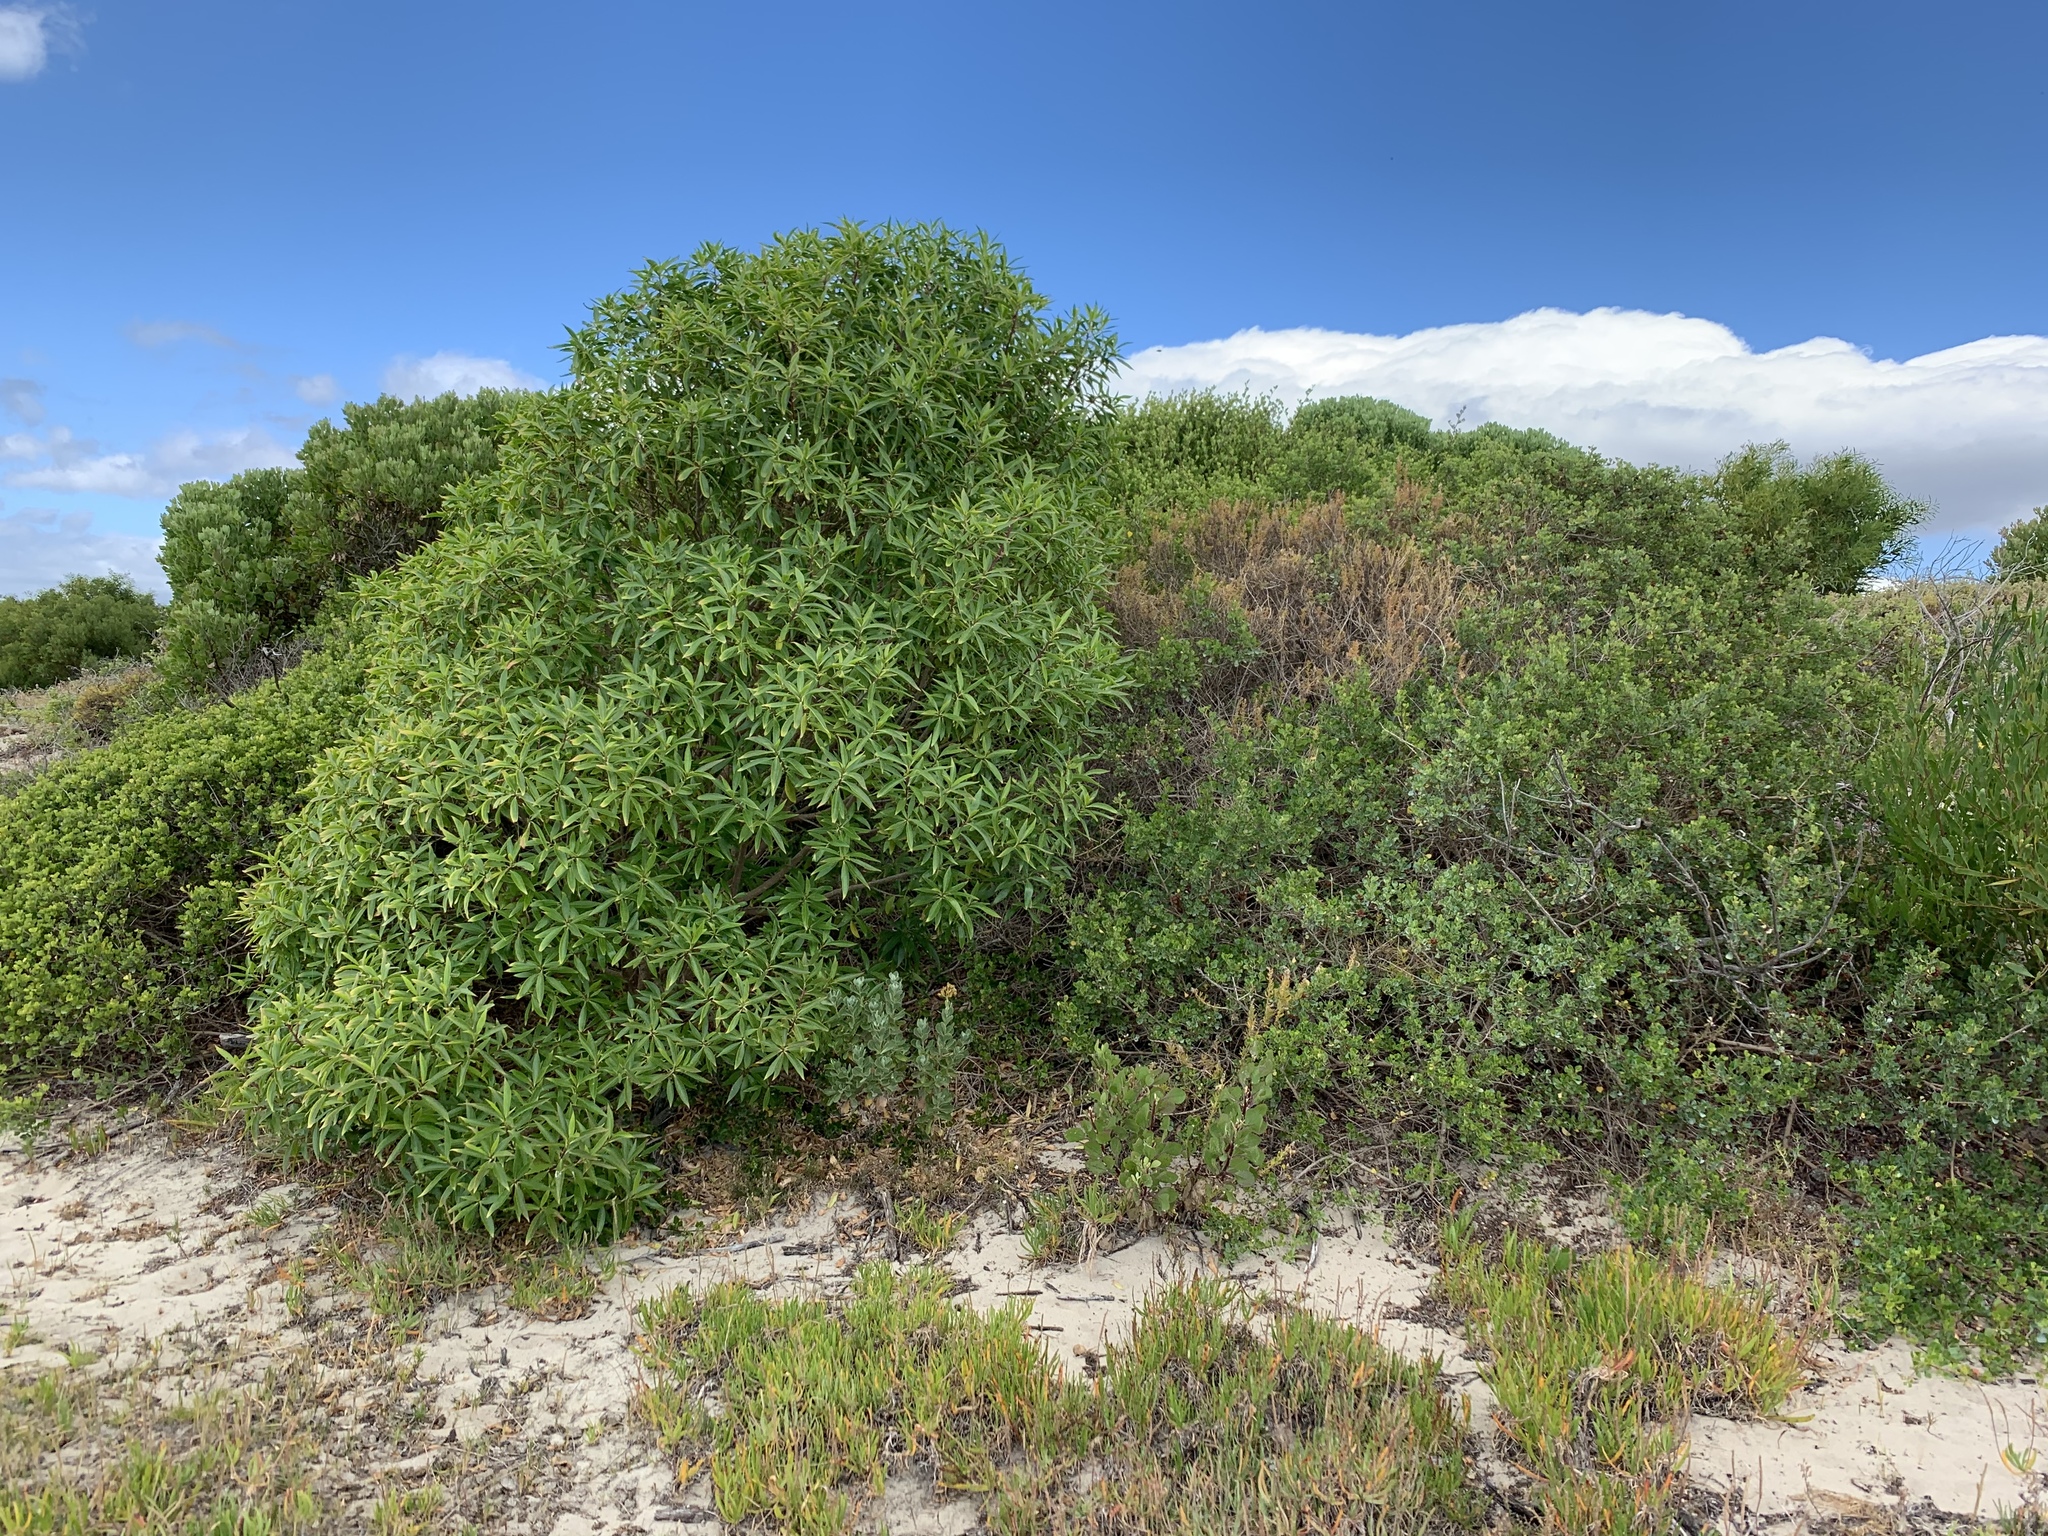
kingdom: Plantae
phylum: Tracheophyta
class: Magnoliopsida
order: Lamiales
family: Scrophulariaceae
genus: Myoporum
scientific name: Myoporum montanum
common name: Waterbush
